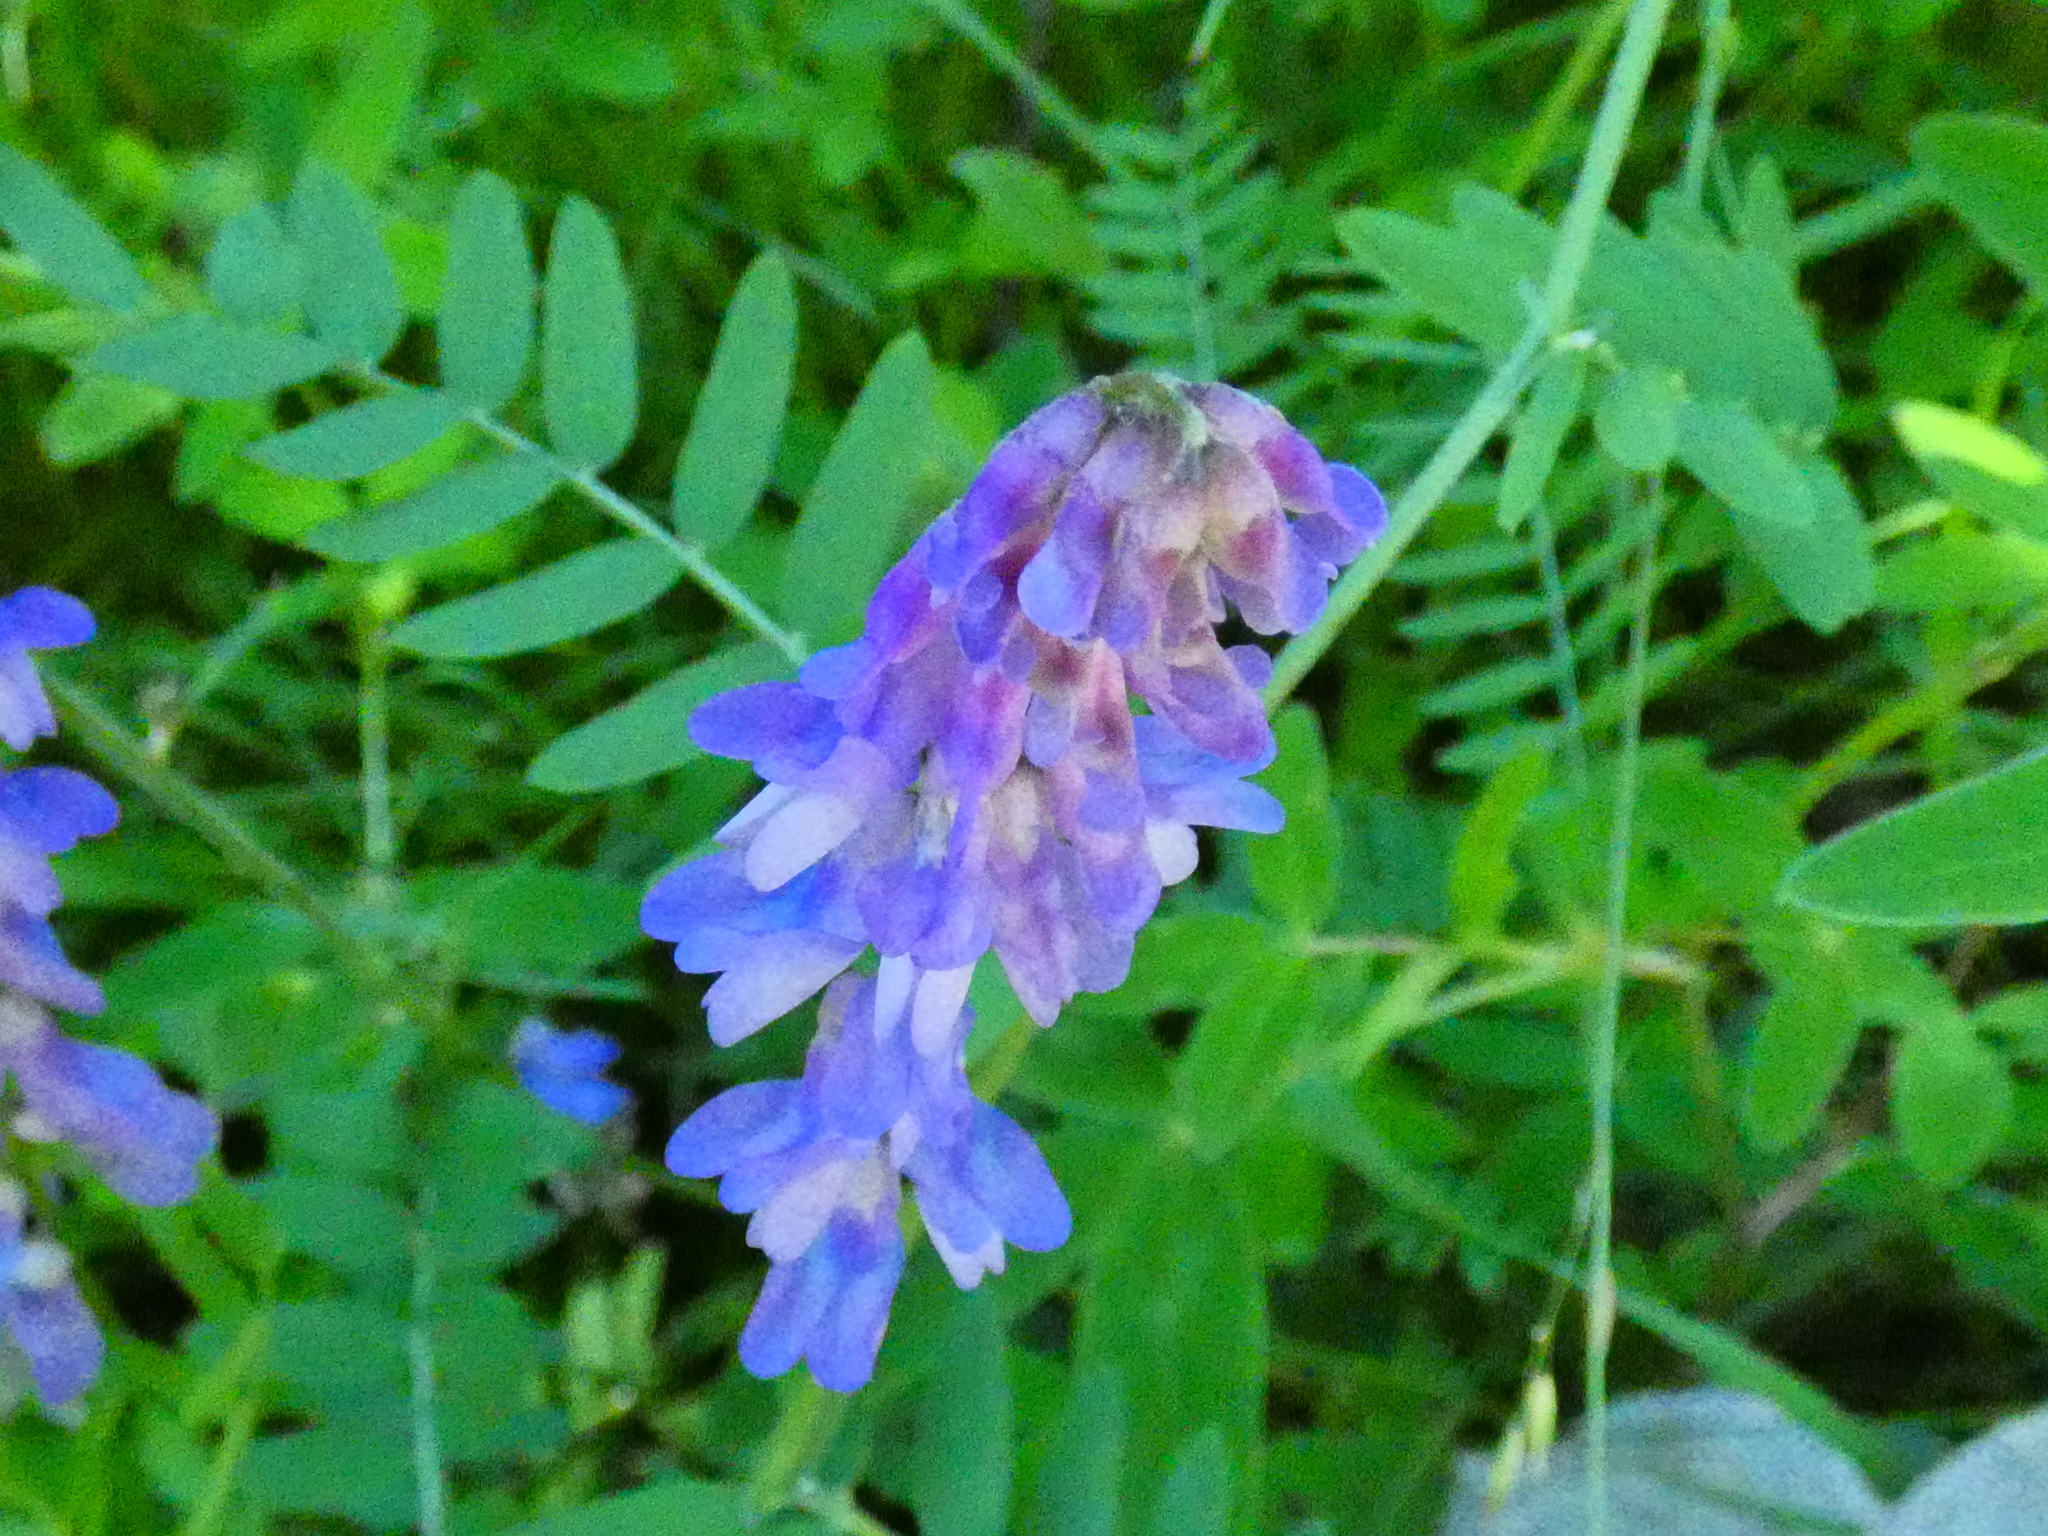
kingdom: Plantae
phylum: Tracheophyta
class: Magnoliopsida
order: Fabales
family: Fabaceae
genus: Vicia
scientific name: Vicia cracca
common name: Bird vetch
